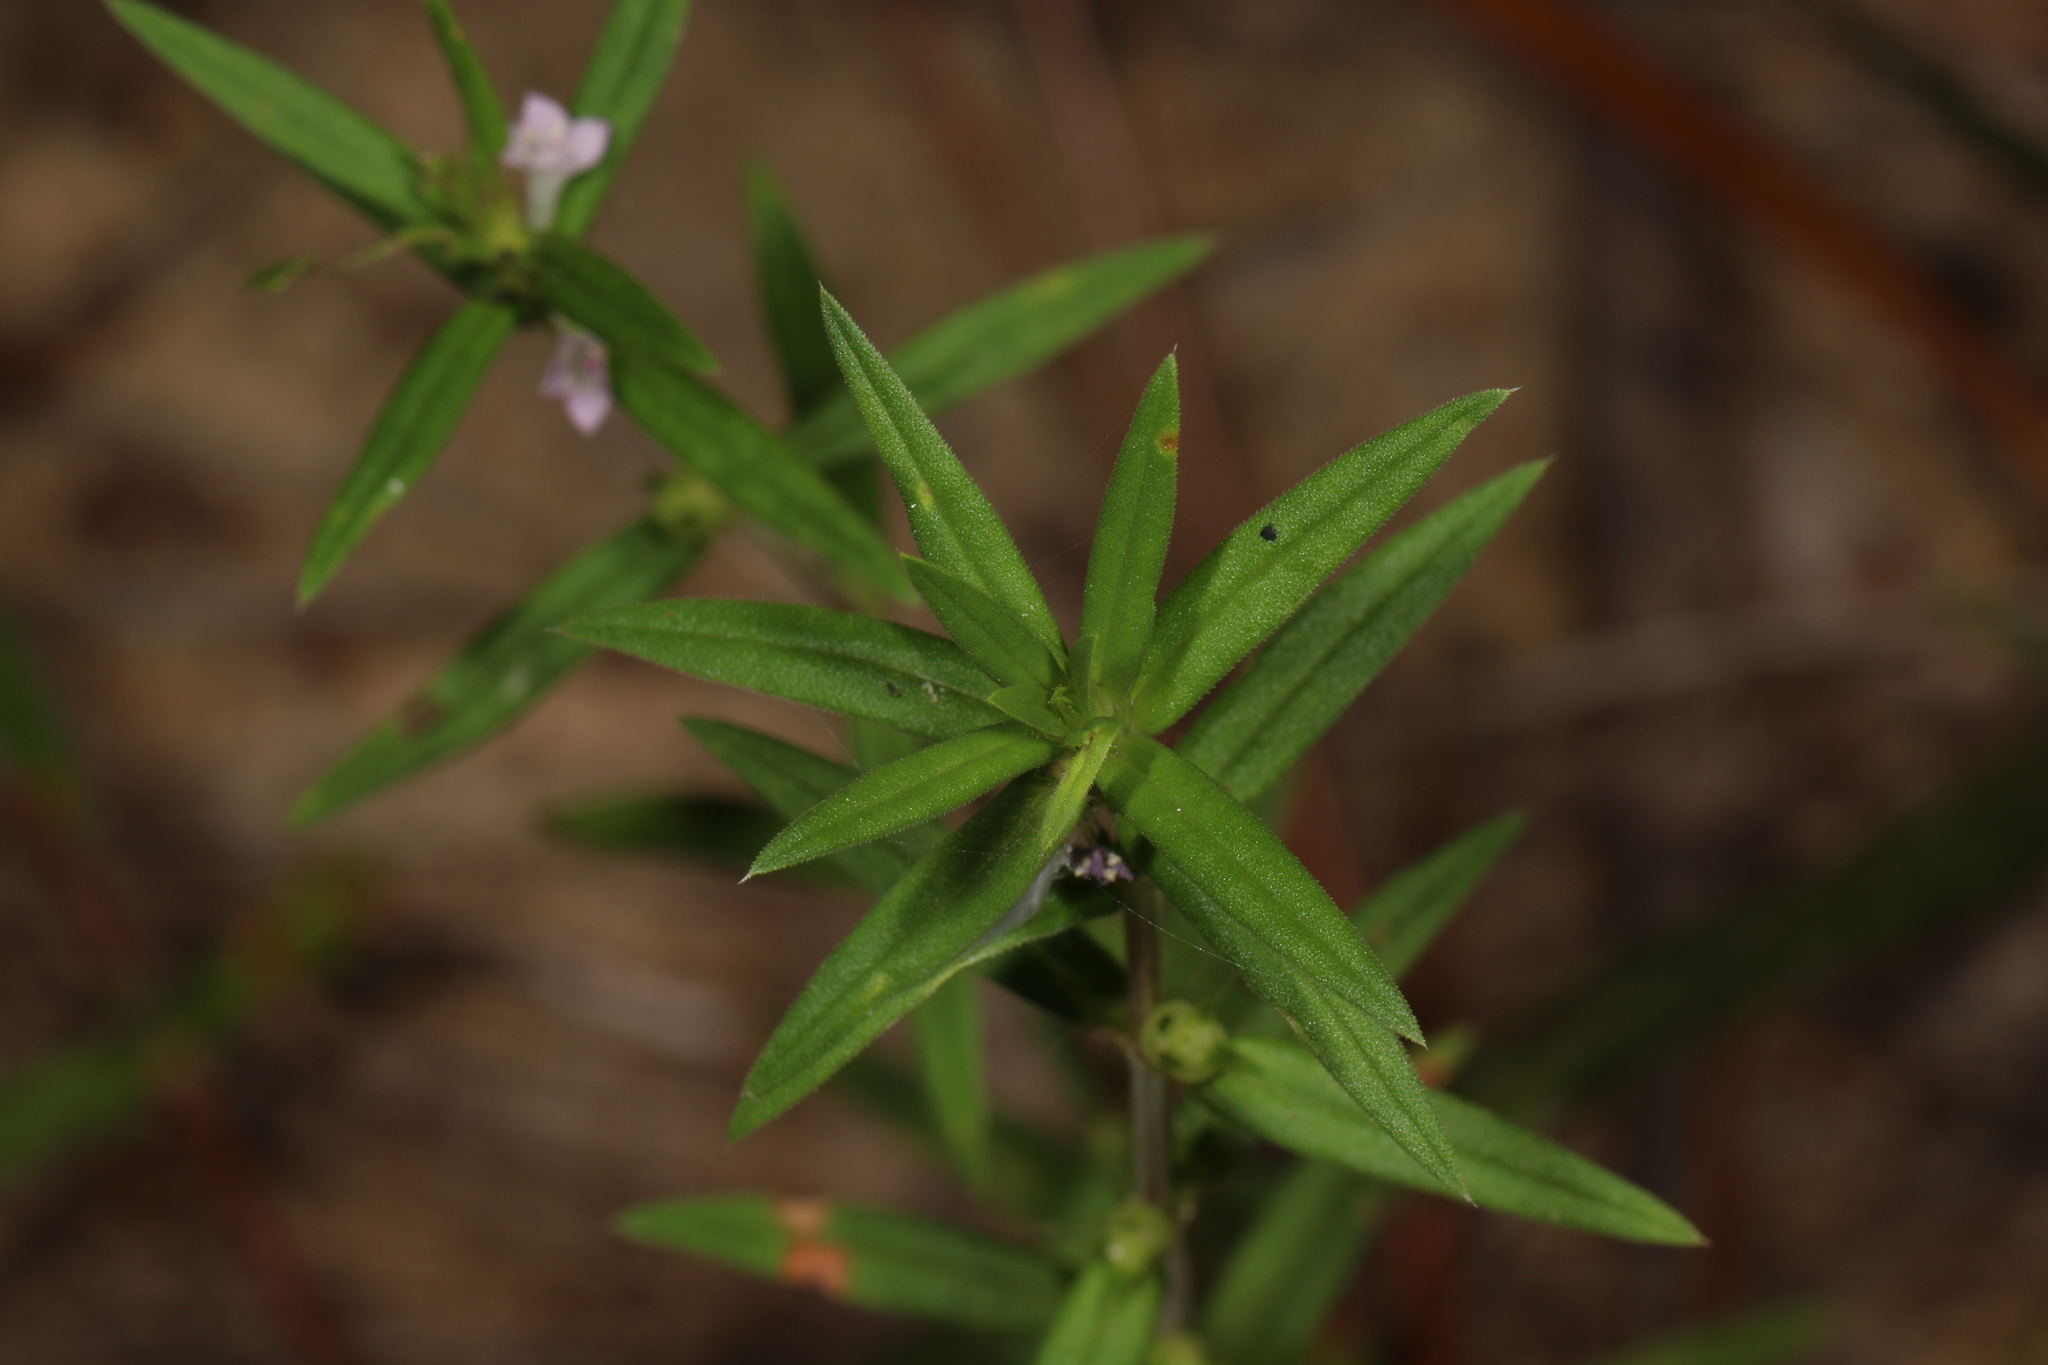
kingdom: Plantae
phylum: Tracheophyta
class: Magnoliopsida
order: Gentianales
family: Rubiaceae
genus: Hexasepalum
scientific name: Hexasepalum teres
